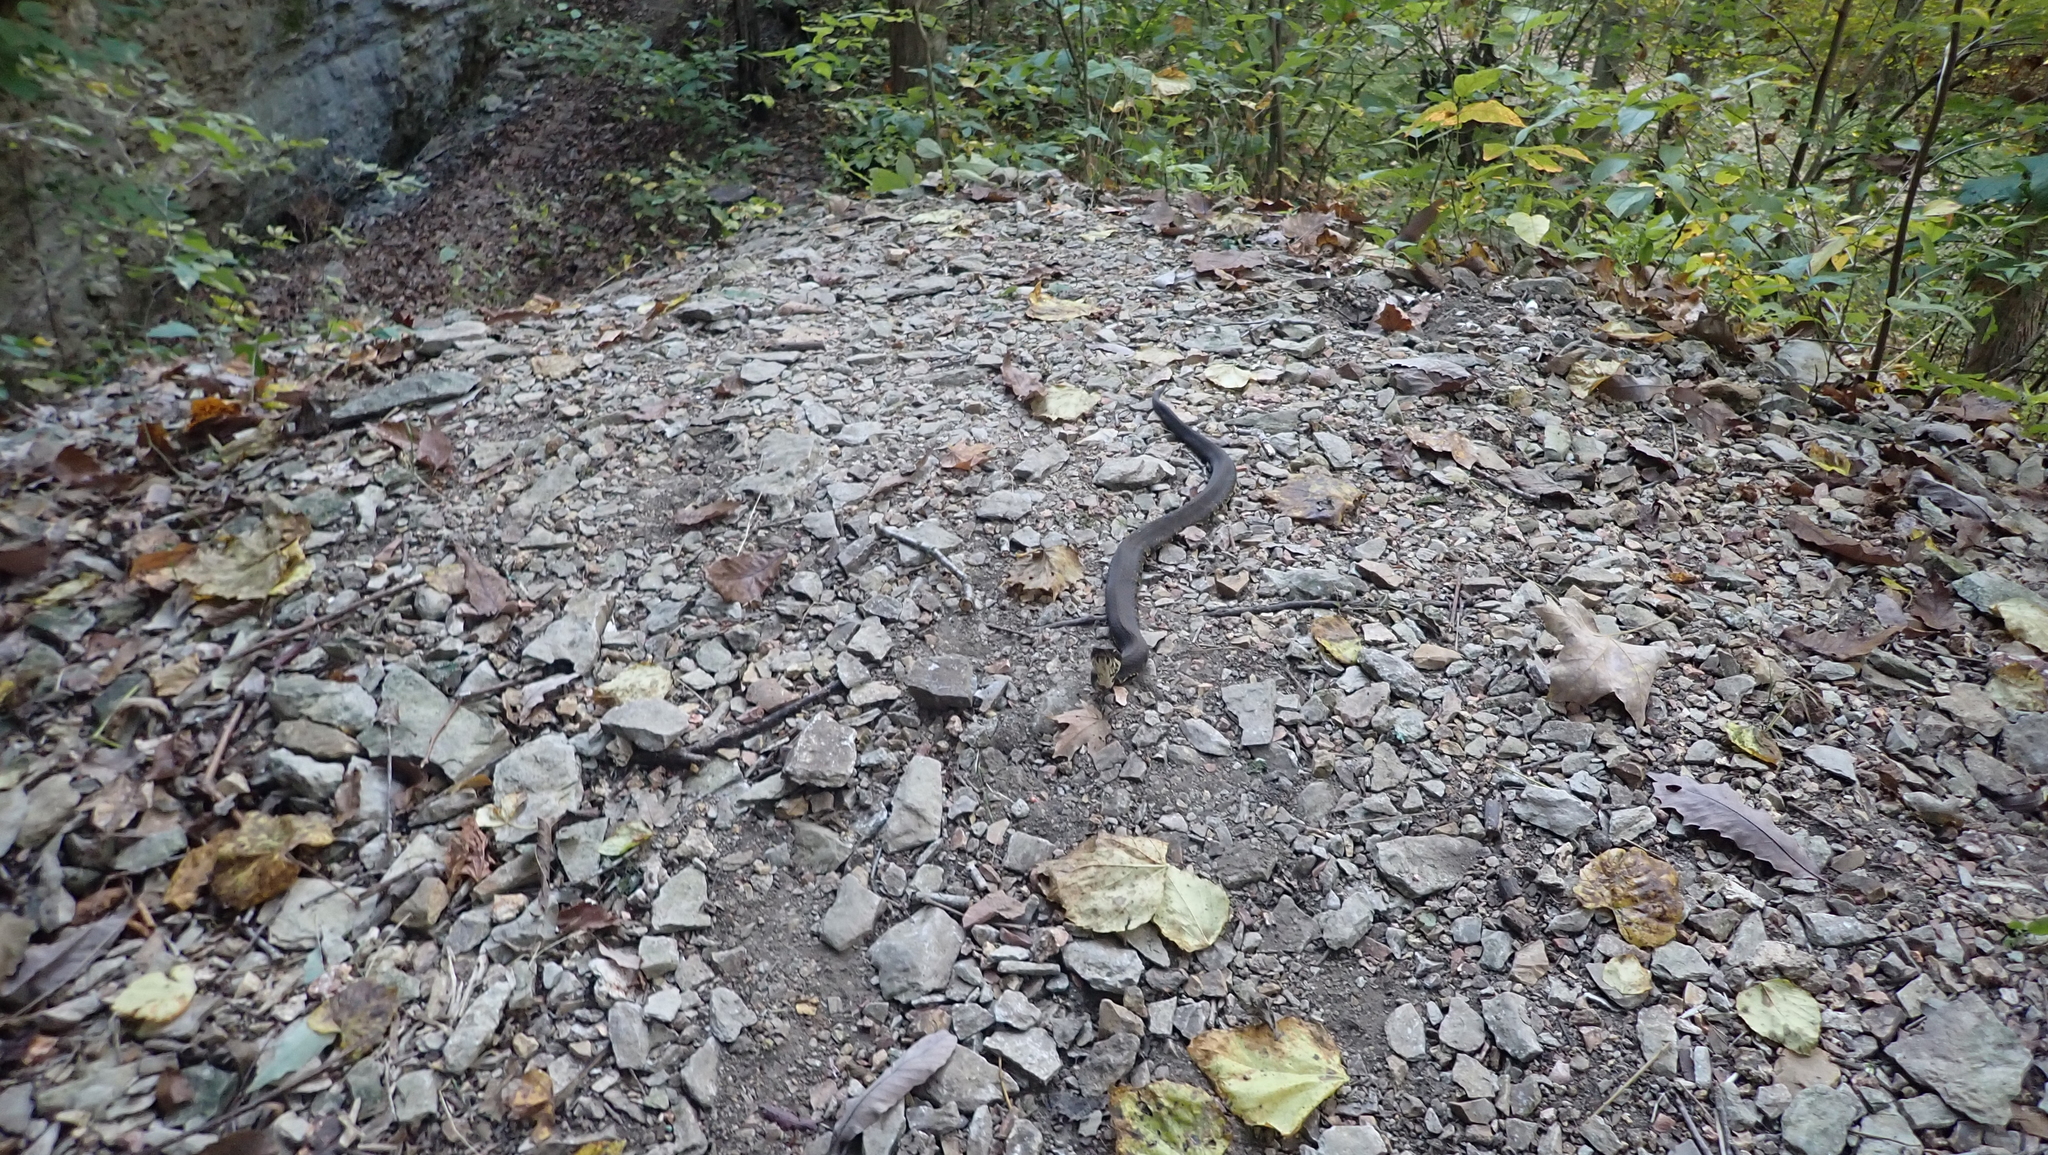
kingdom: Animalia
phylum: Chordata
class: Squamata
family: Viperidae
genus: Agkistrodon
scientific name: Agkistrodon piscivorus
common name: Cottonmouth
